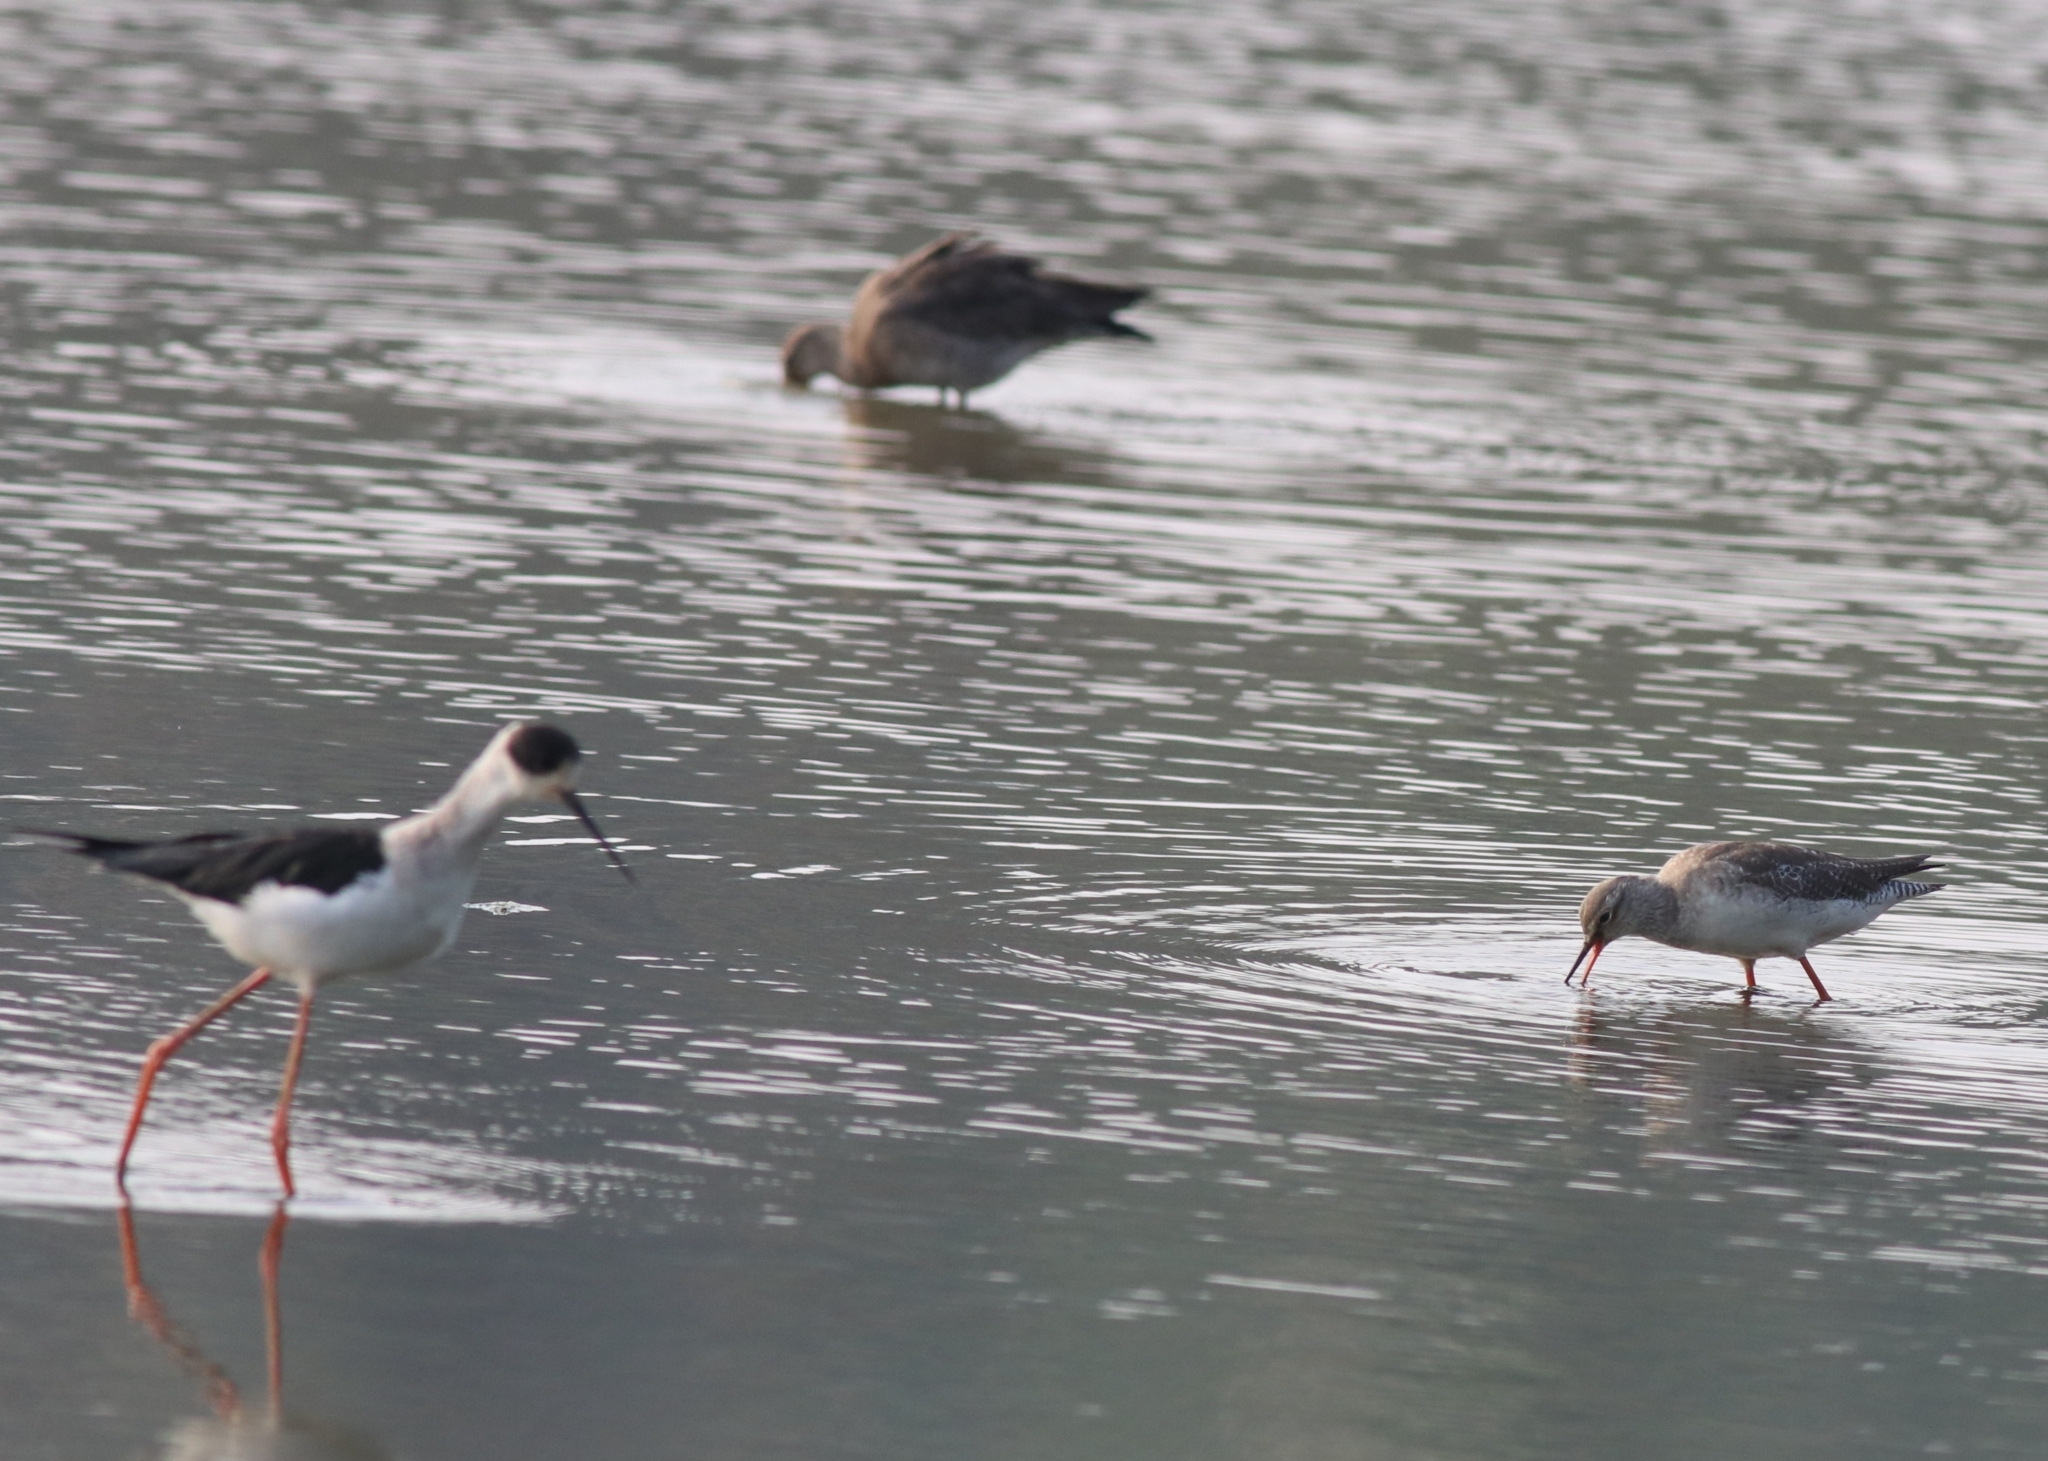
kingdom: Animalia
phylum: Chordata
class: Aves
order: Charadriiformes
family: Recurvirostridae
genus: Himantopus
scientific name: Himantopus himantopus
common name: Black-winged stilt
